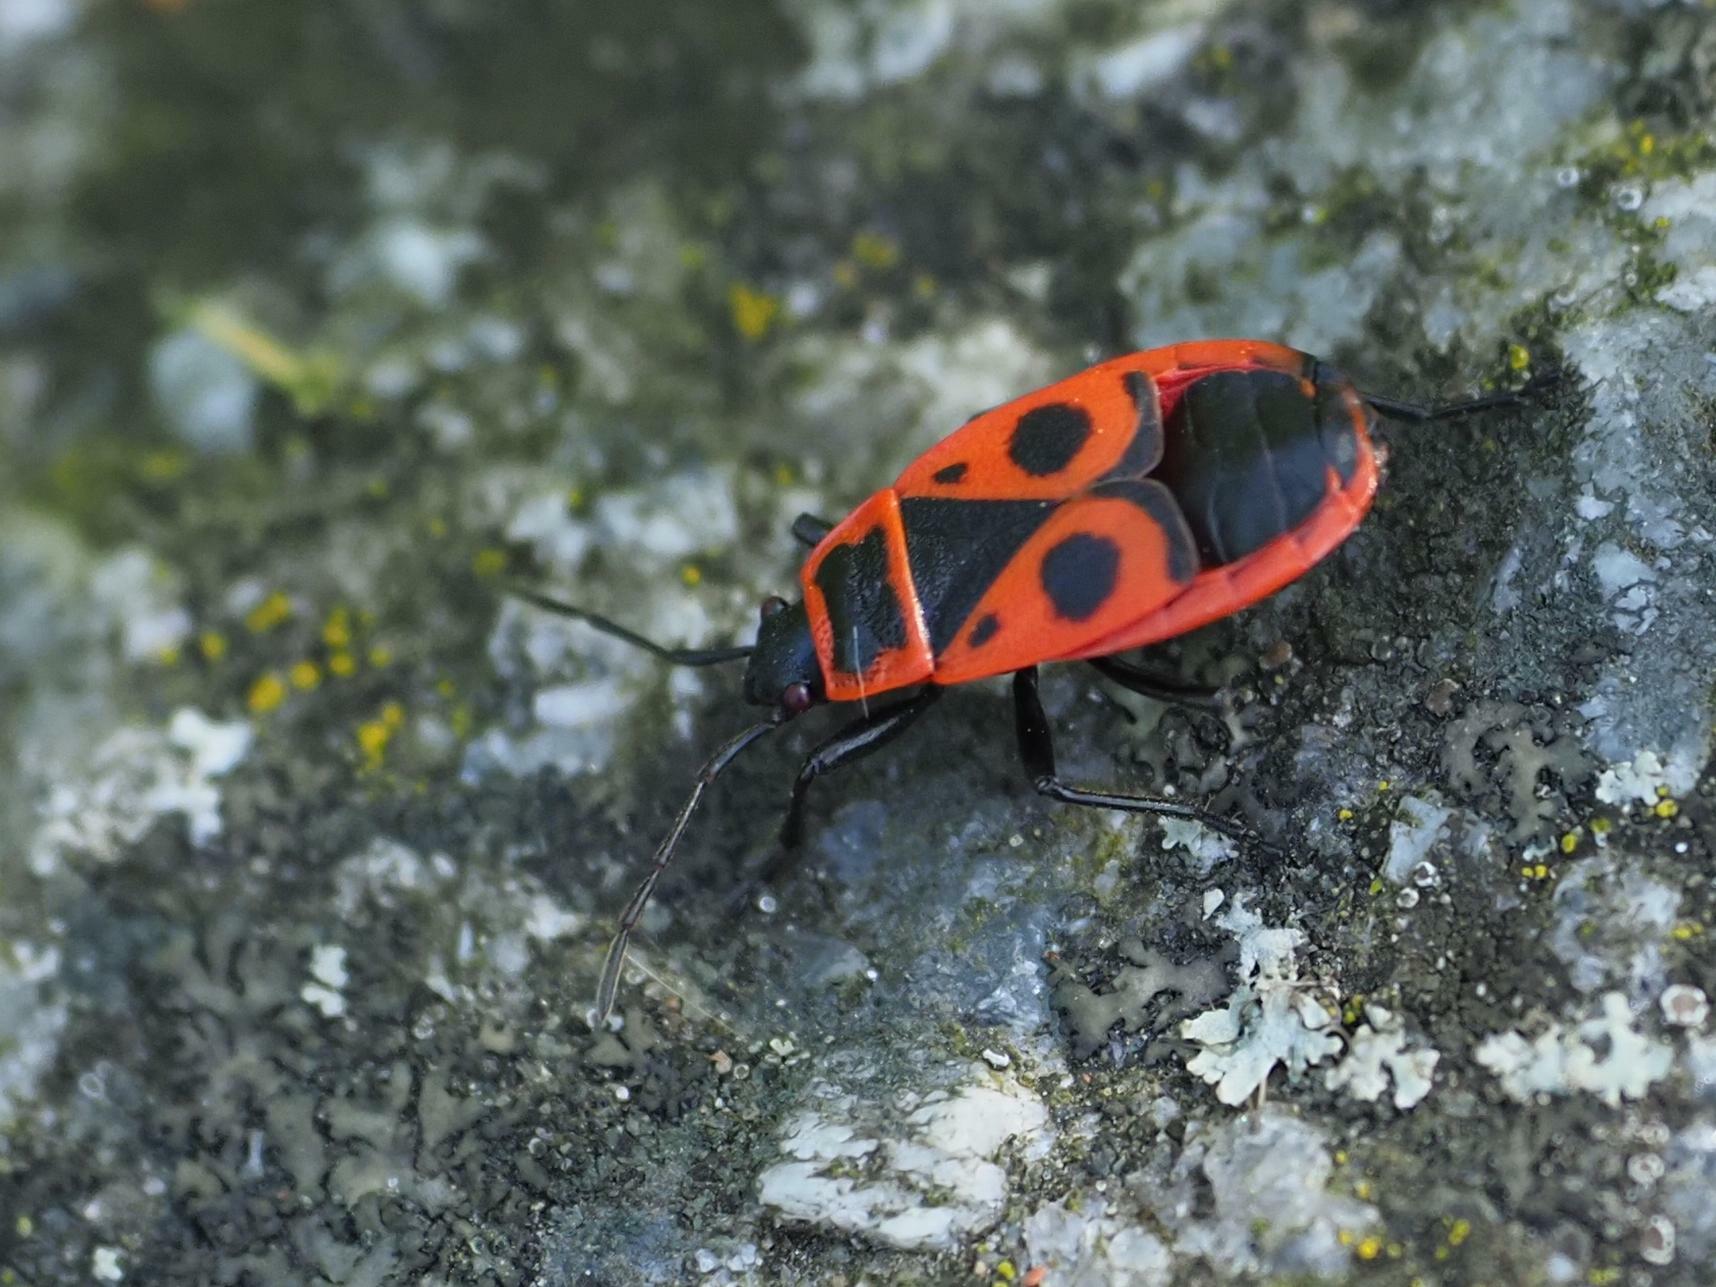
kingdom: Animalia
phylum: Arthropoda
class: Insecta
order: Hemiptera
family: Pyrrhocoridae
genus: Pyrrhocoris
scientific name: Pyrrhocoris apterus
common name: Firebug
